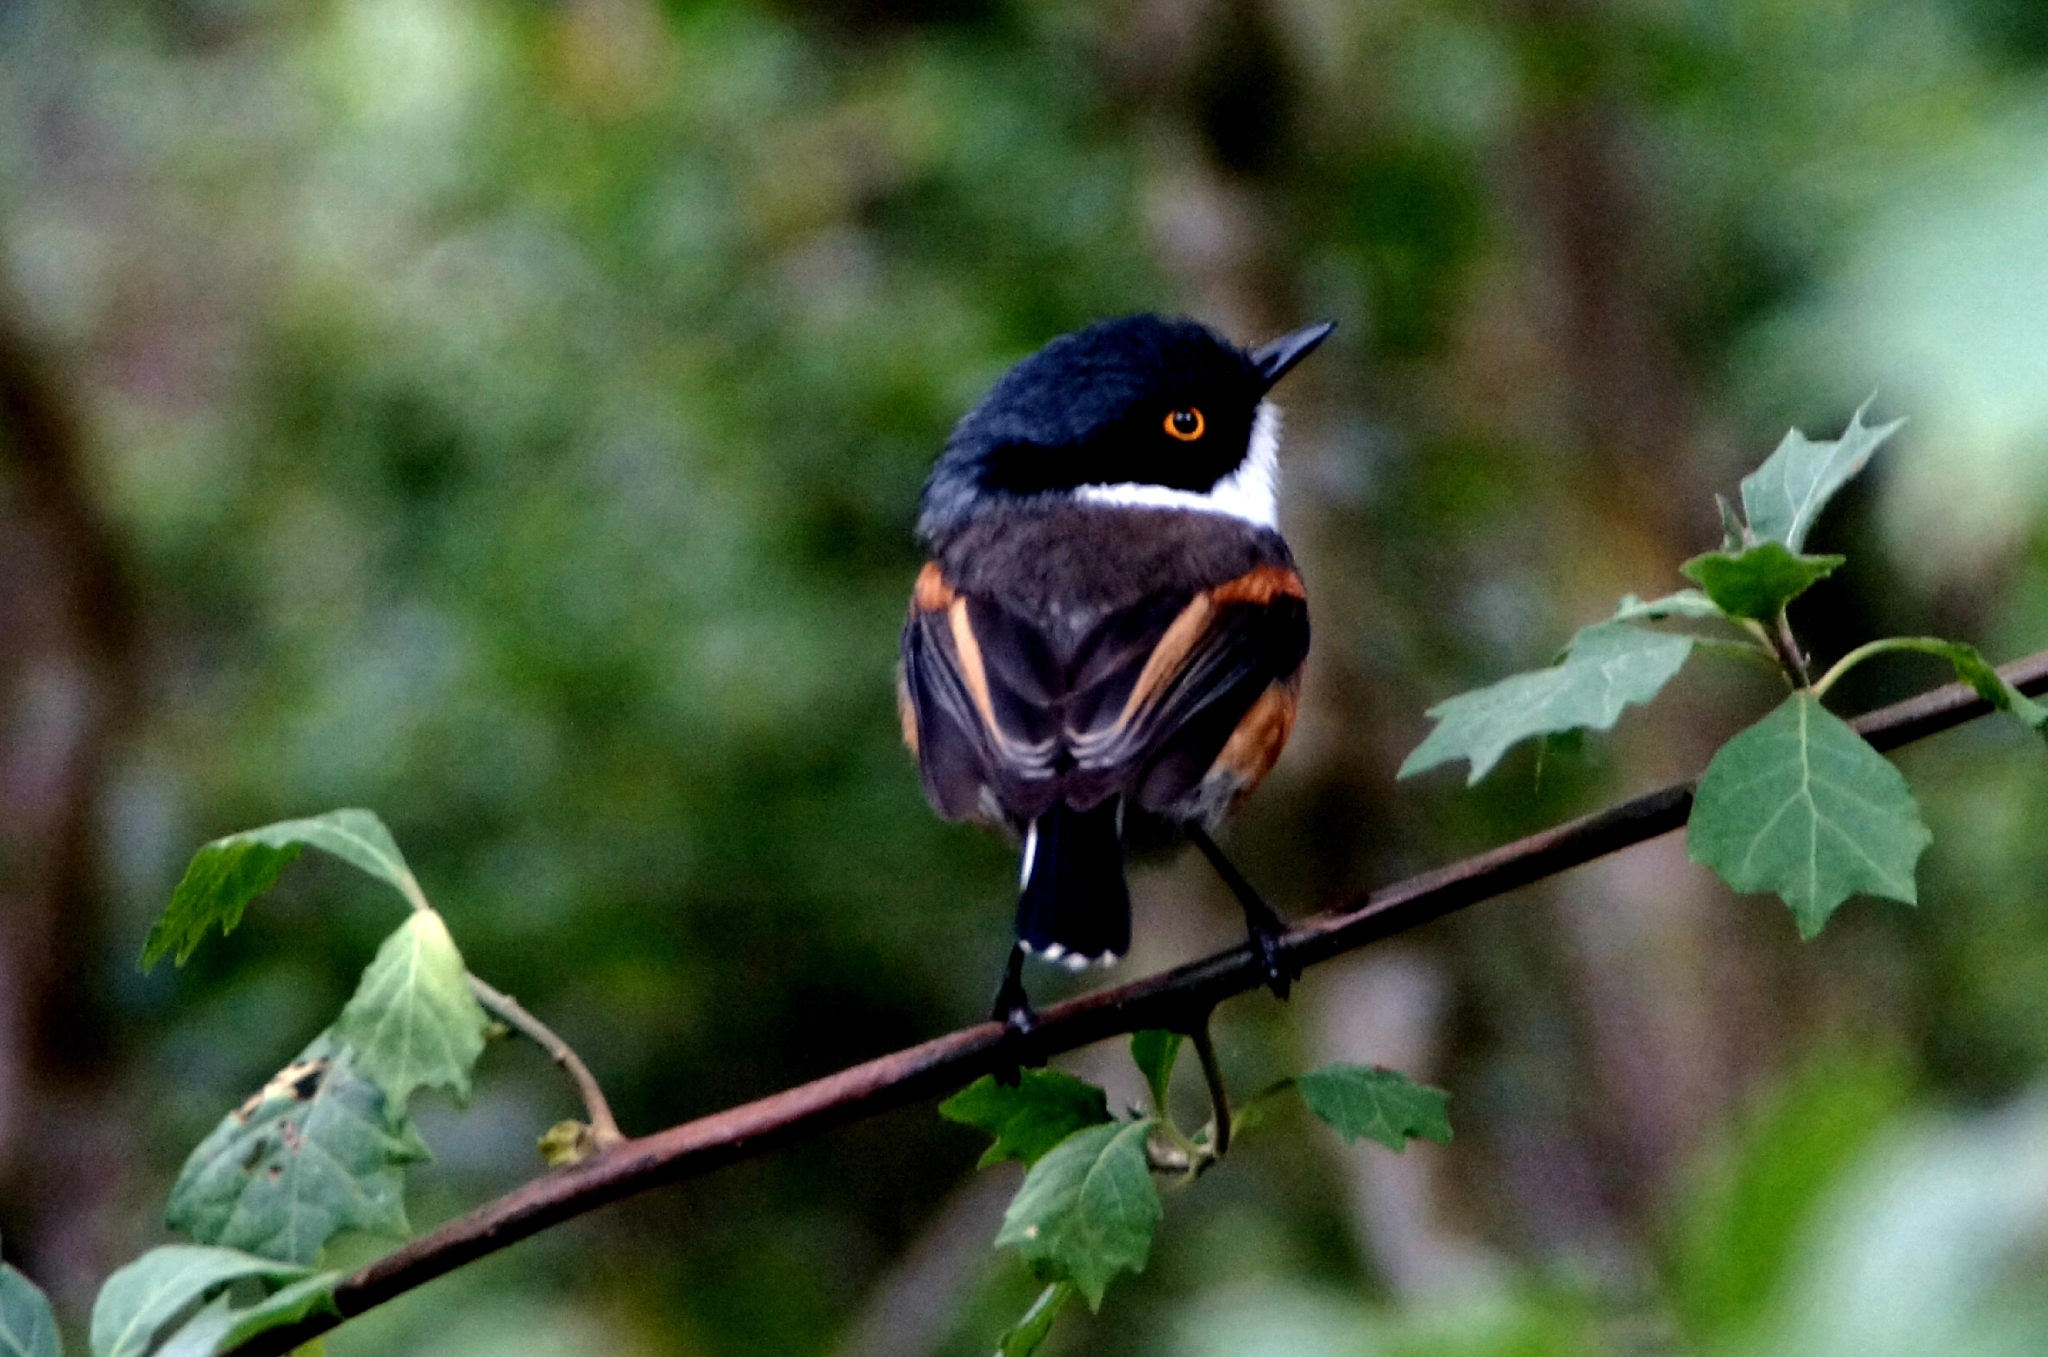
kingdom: Animalia
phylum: Chordata
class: Aves
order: Passeriformes
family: Platysteiridae
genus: Batis
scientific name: Batis capensis
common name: Cape batis
